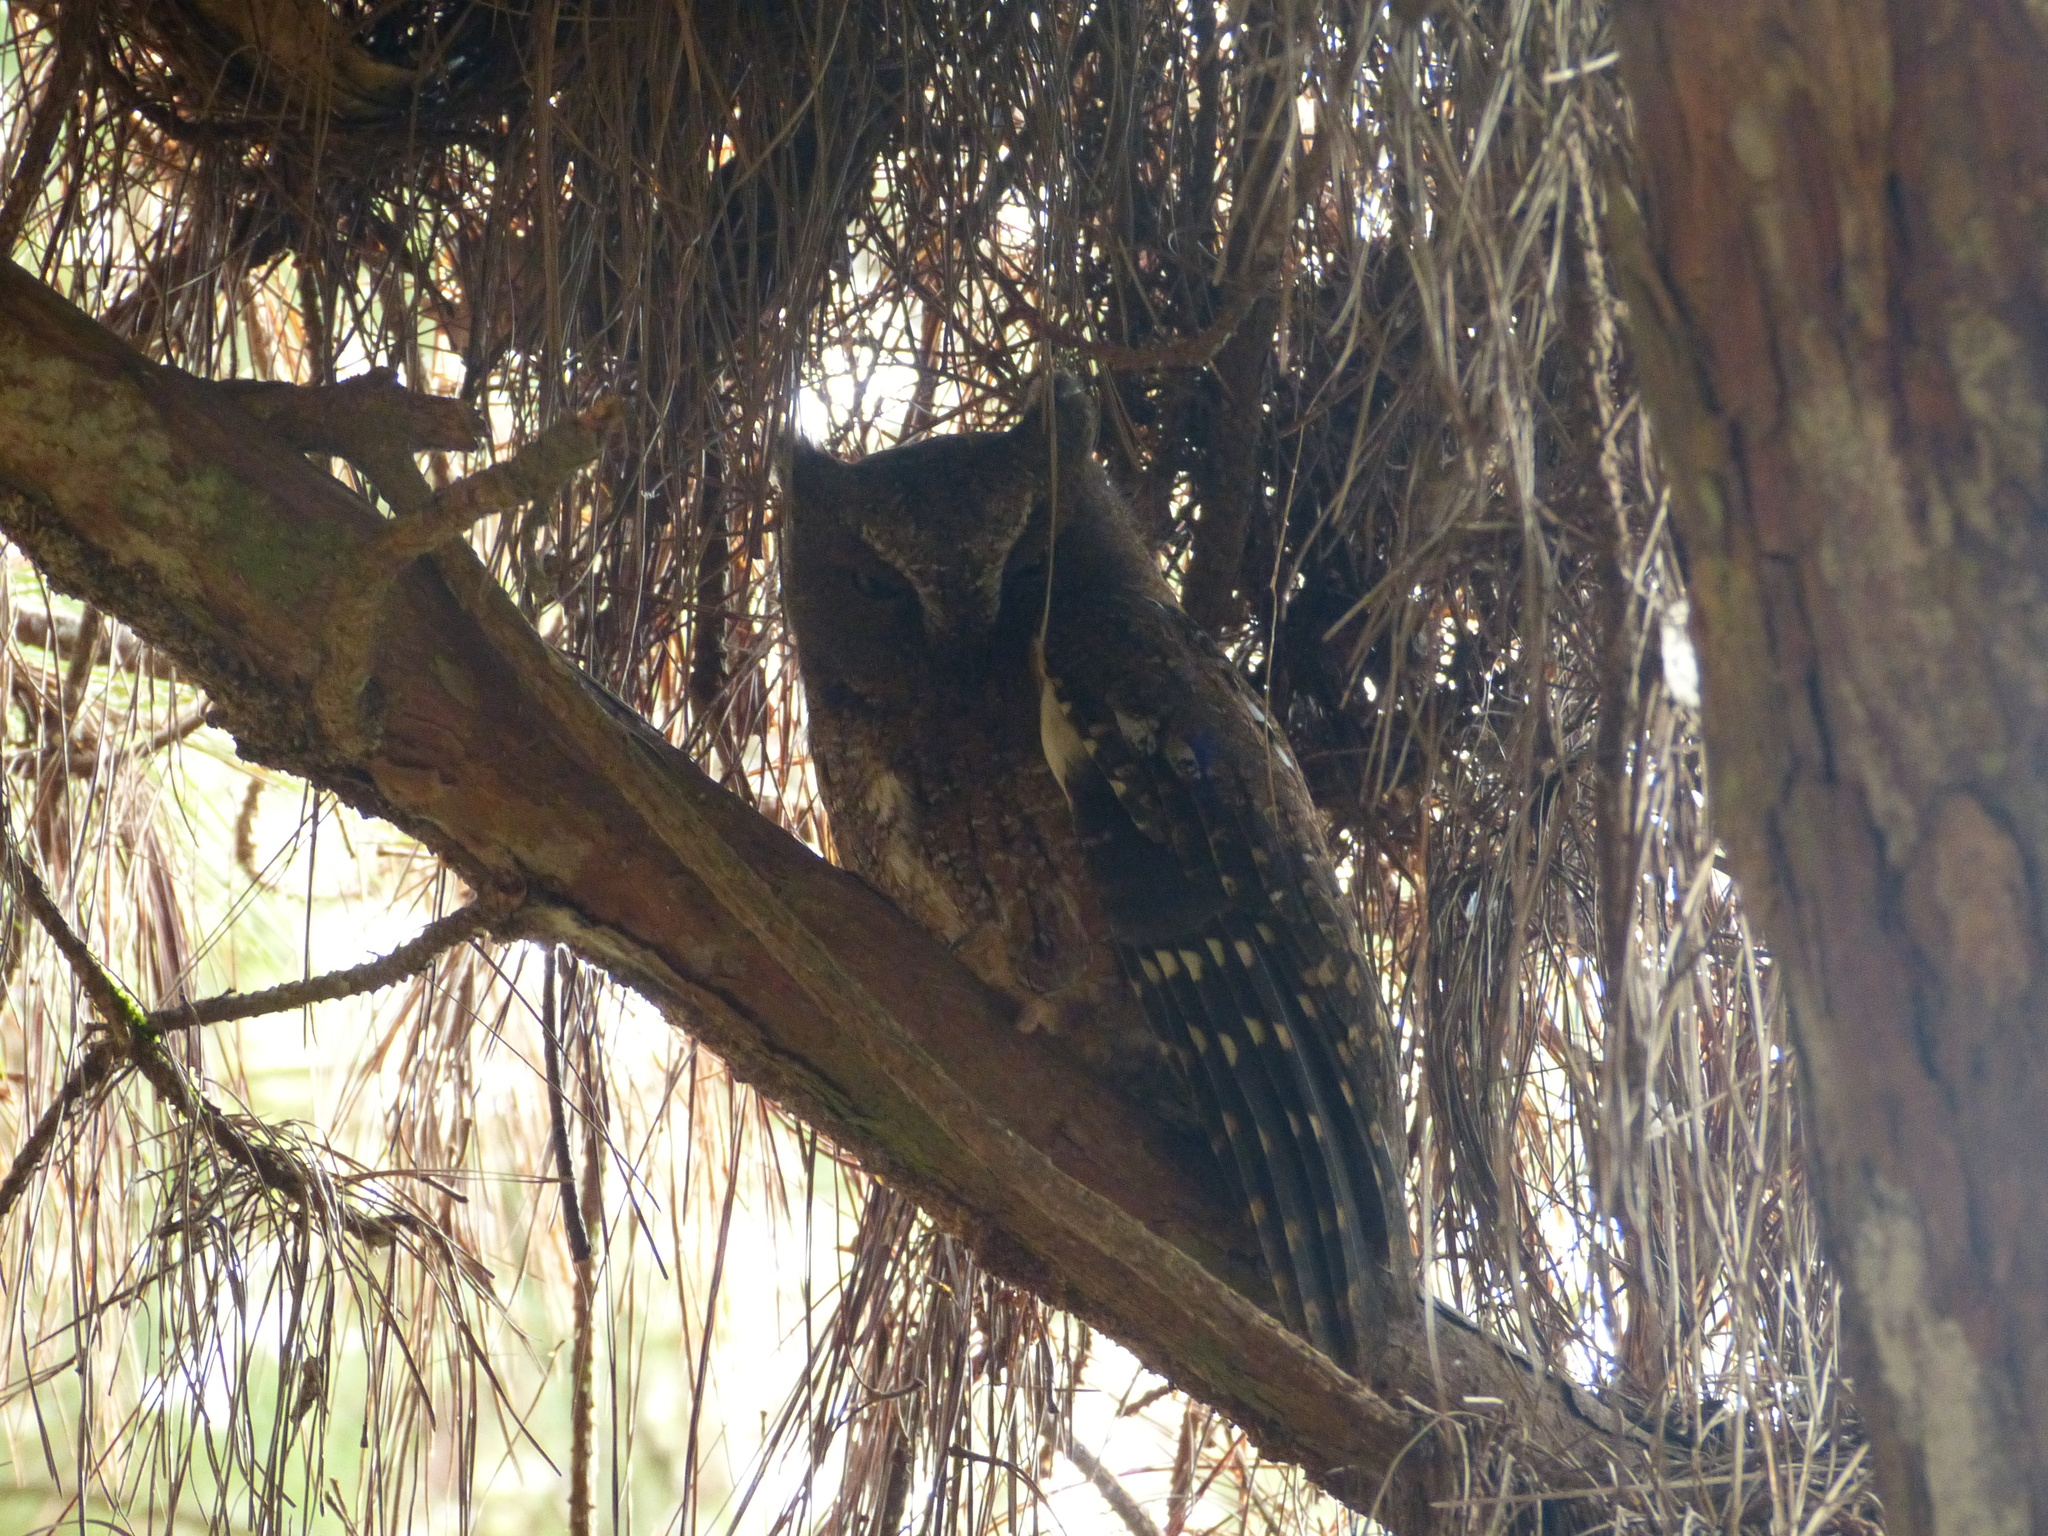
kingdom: Animalia
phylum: Chordata
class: Aves
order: Strigiformes
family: Strigidae
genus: Otus
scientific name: Otus rutilus
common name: Rainforest scops owl
